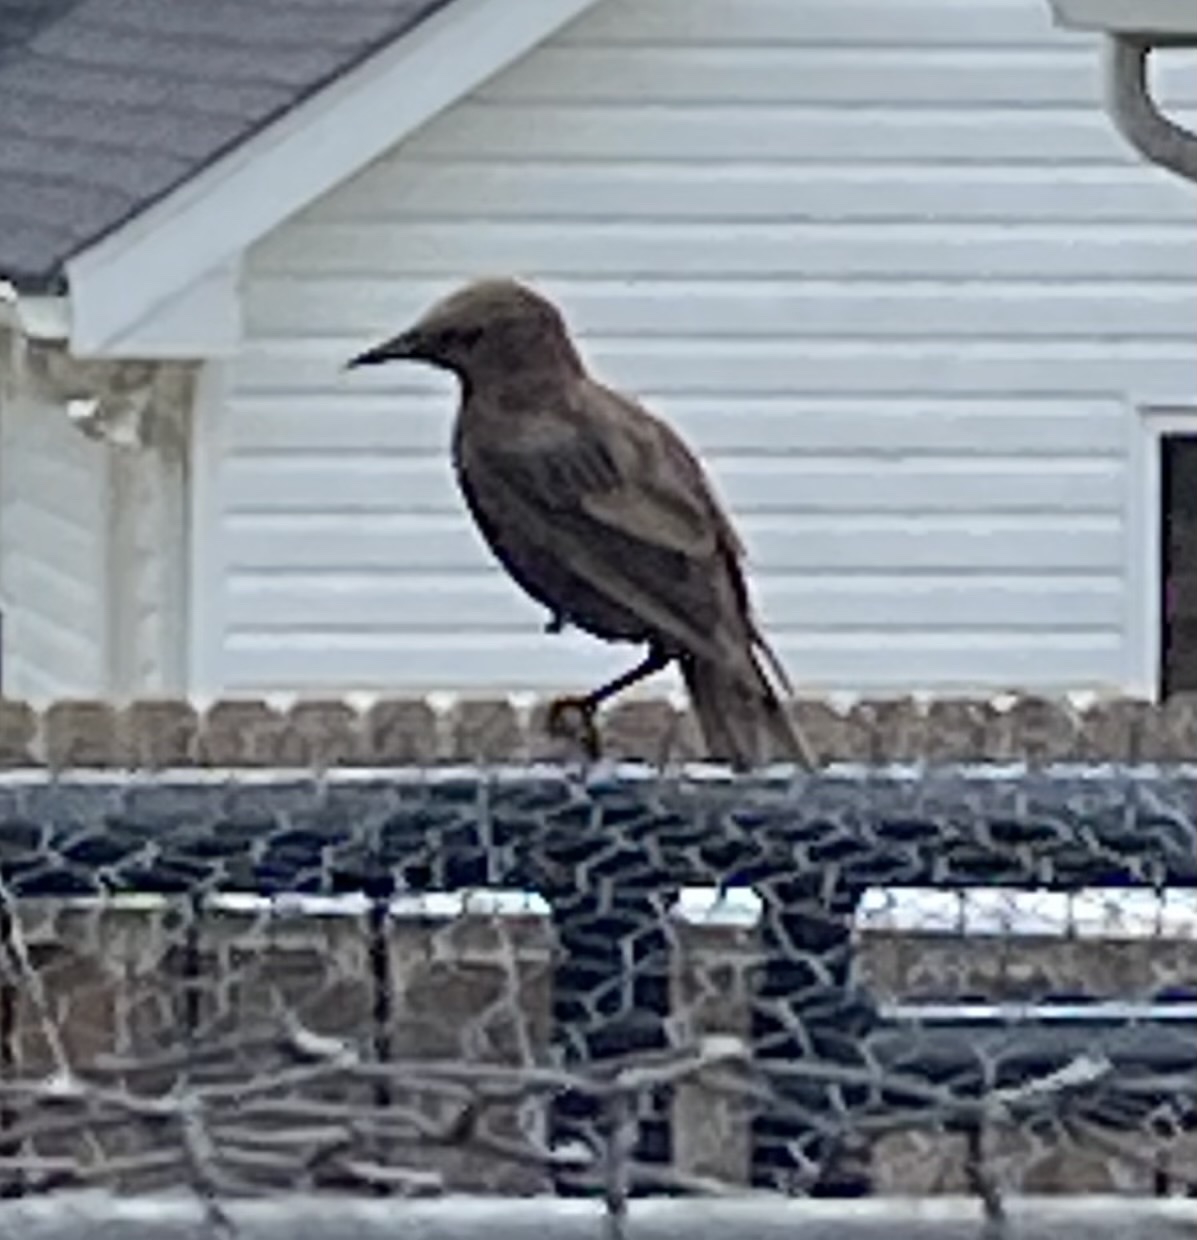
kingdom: Animalia
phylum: Chordata
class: Aves
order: Passeriformes
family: Sturnidae
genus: Sturnus
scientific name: Sturnus vulgaris
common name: Common starling
